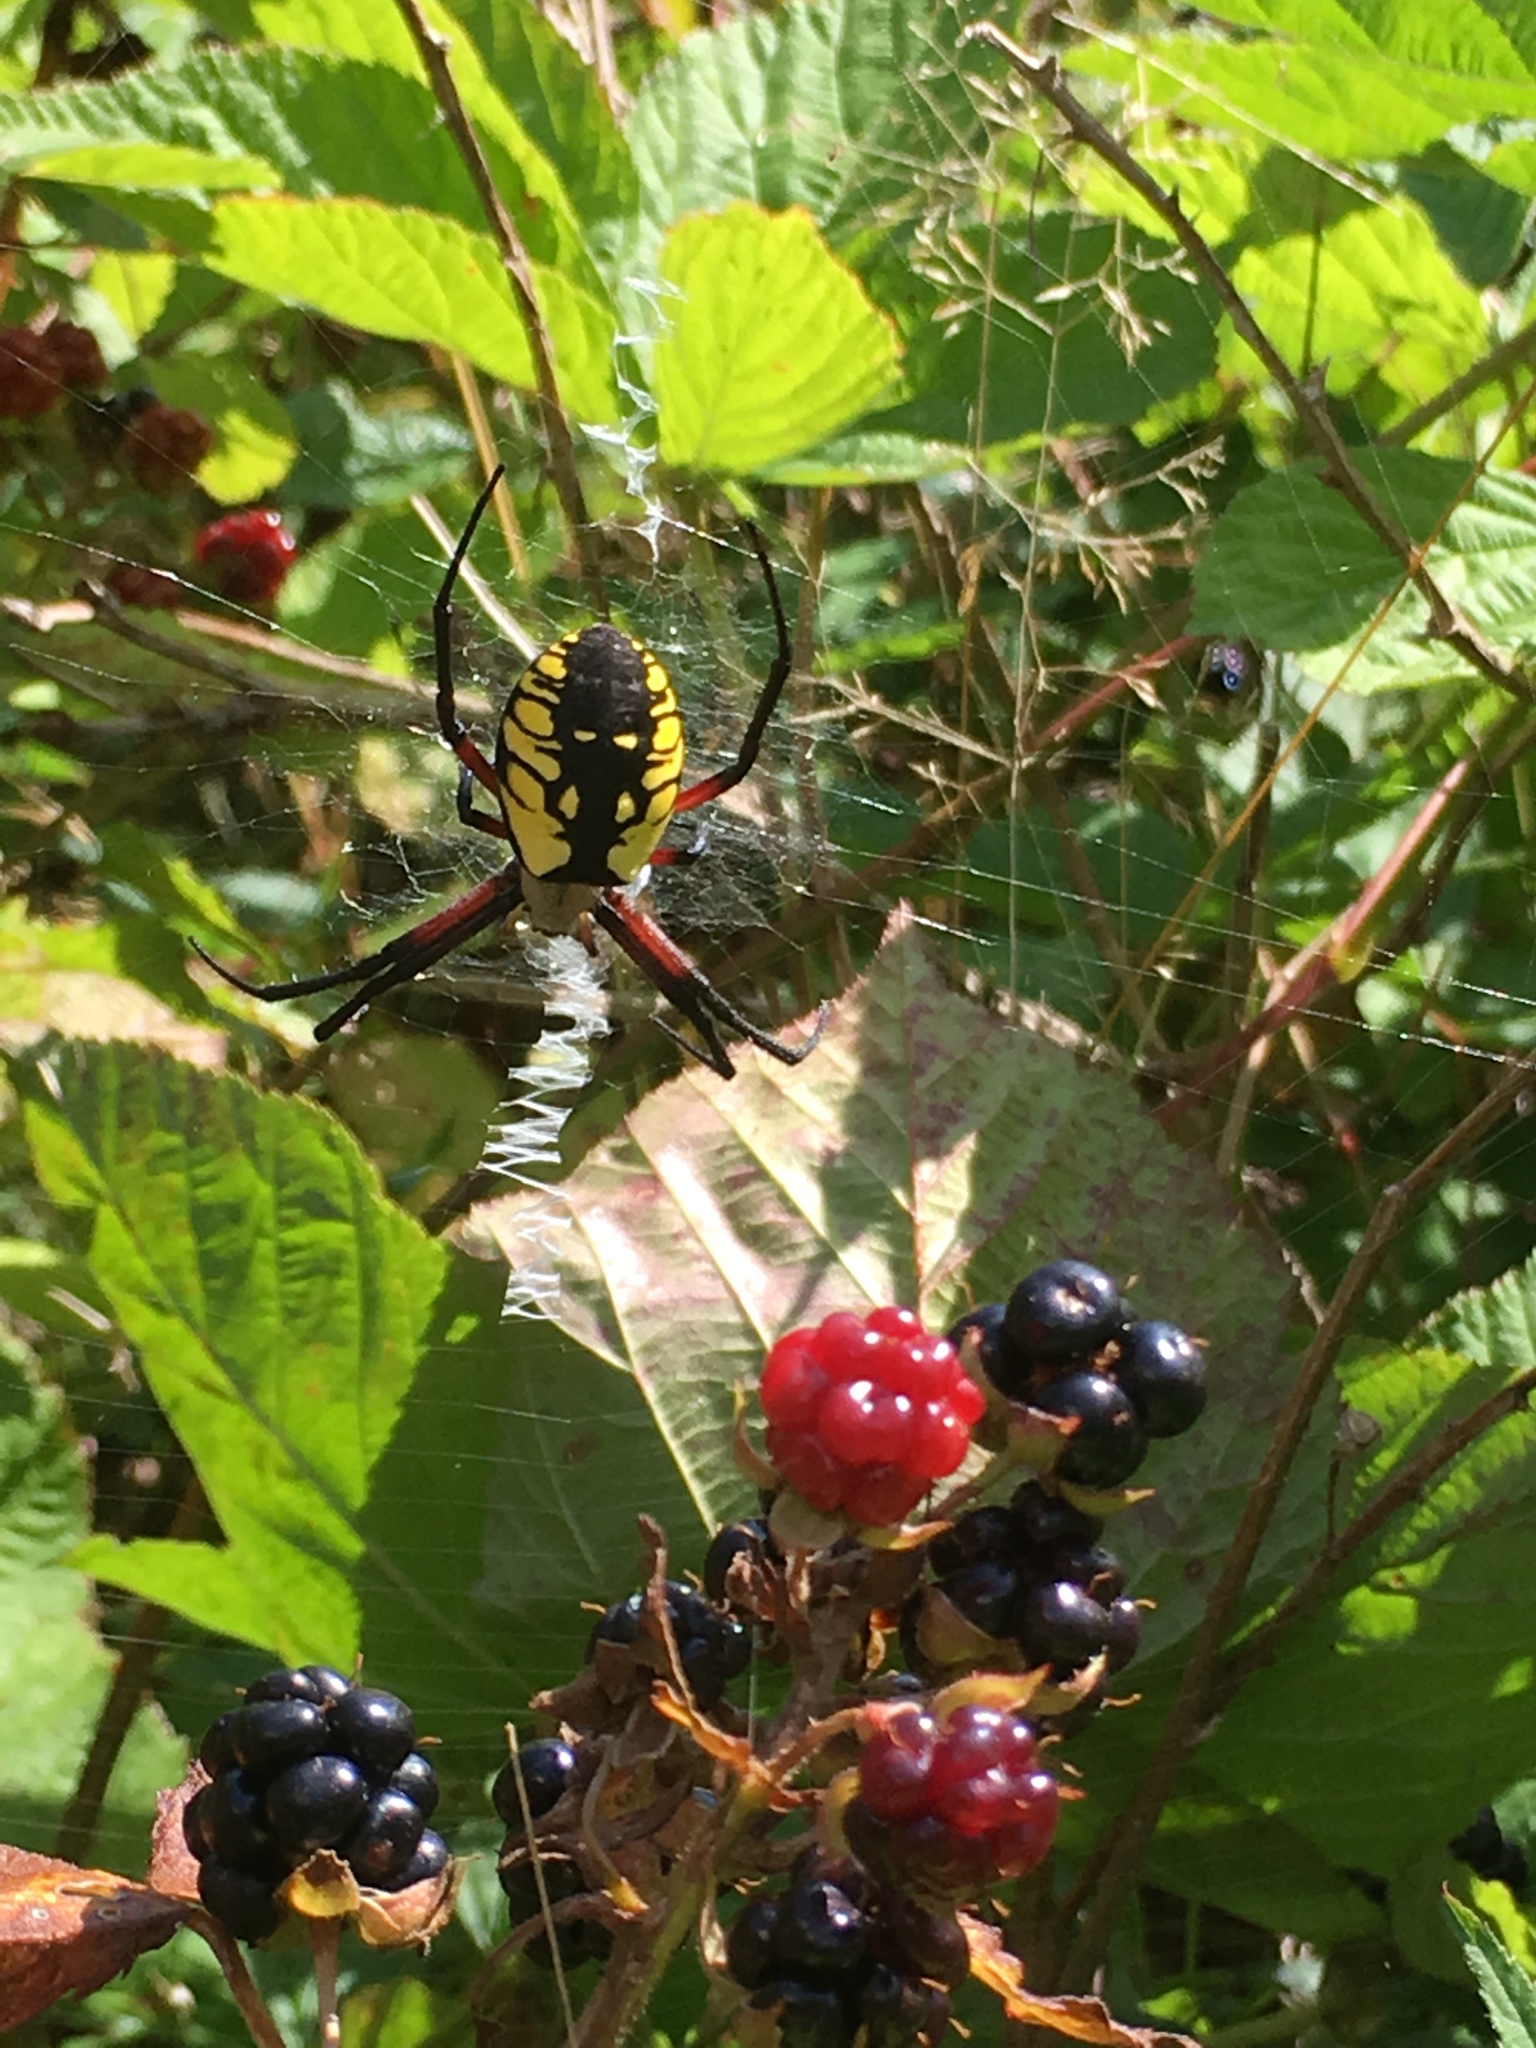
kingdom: Animalia
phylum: Arthropoda
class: Arachnida
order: Araneae
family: Araneidae
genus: Argiope
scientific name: Argiope aurantia
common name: Orb weavers
